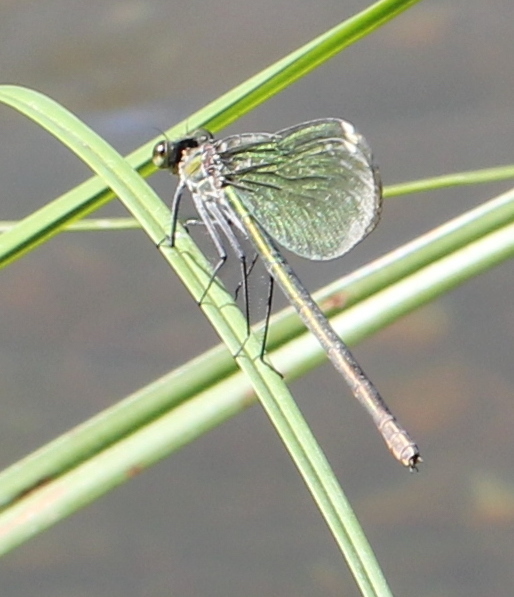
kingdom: Animalia
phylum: Arthropoda
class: Insecta
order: Odonata
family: Calopterygidae
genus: Calopteryx
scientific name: Calopteryx splendens
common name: Banded demoiselle
